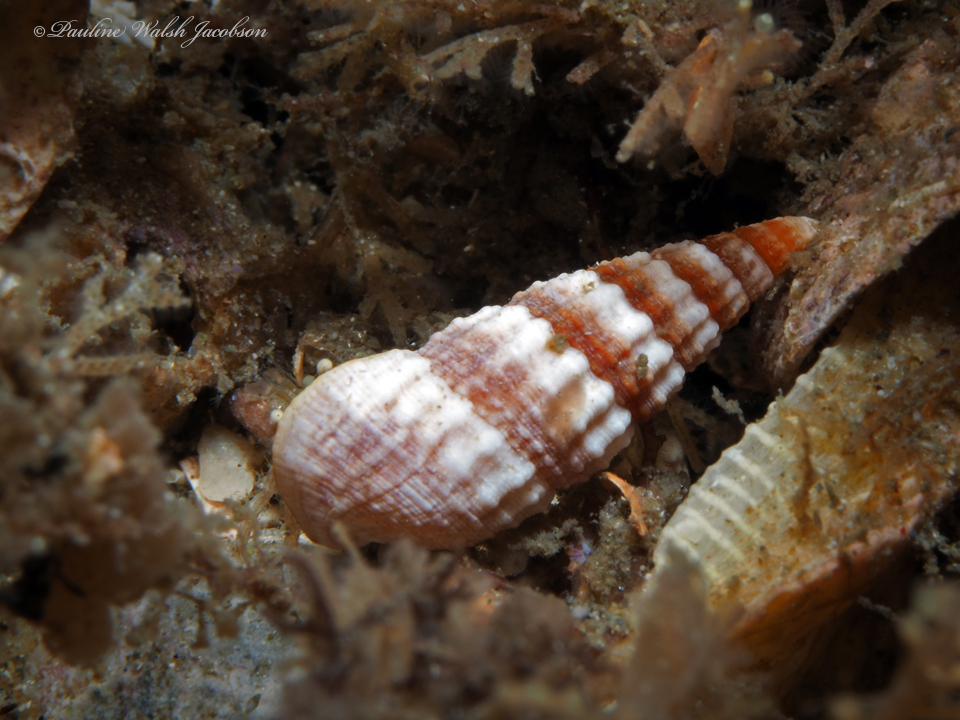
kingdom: Animalia
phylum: Mollusca
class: Gastropoda
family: Batillariidae
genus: Lampanella
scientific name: Lampanella minima
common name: West indian false cerith
